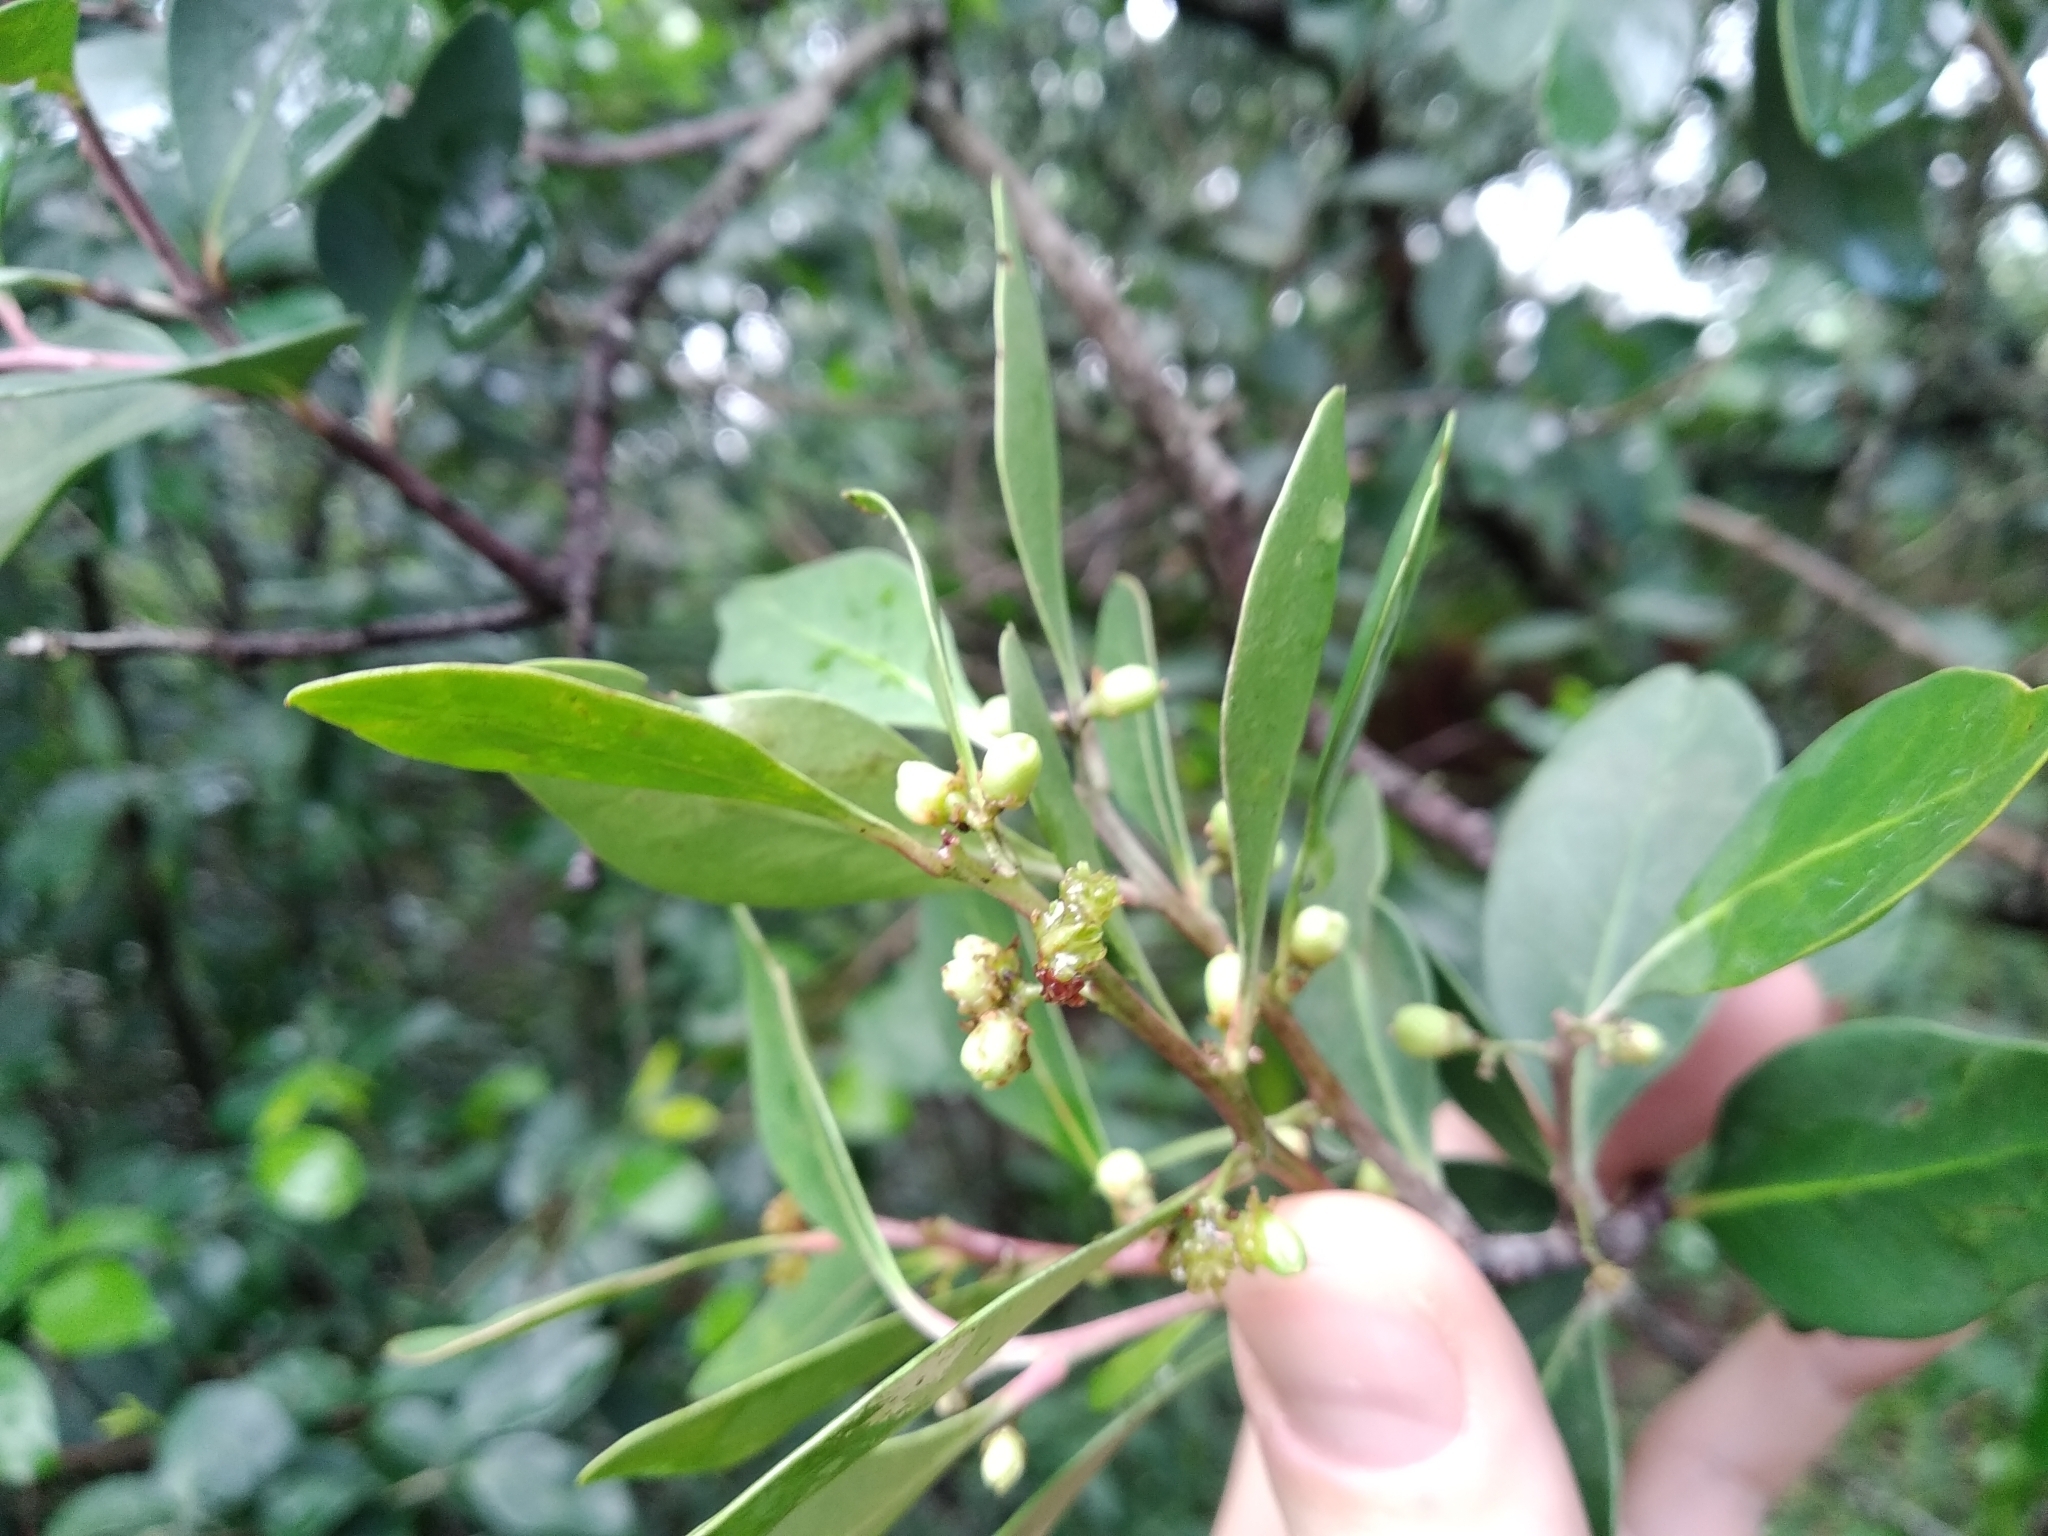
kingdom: Plantae
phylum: Tracheophyta
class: Magnoliopsida
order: Celastrales
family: Celastraceae
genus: Gymnosporia
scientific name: Gymnosporia laurina
